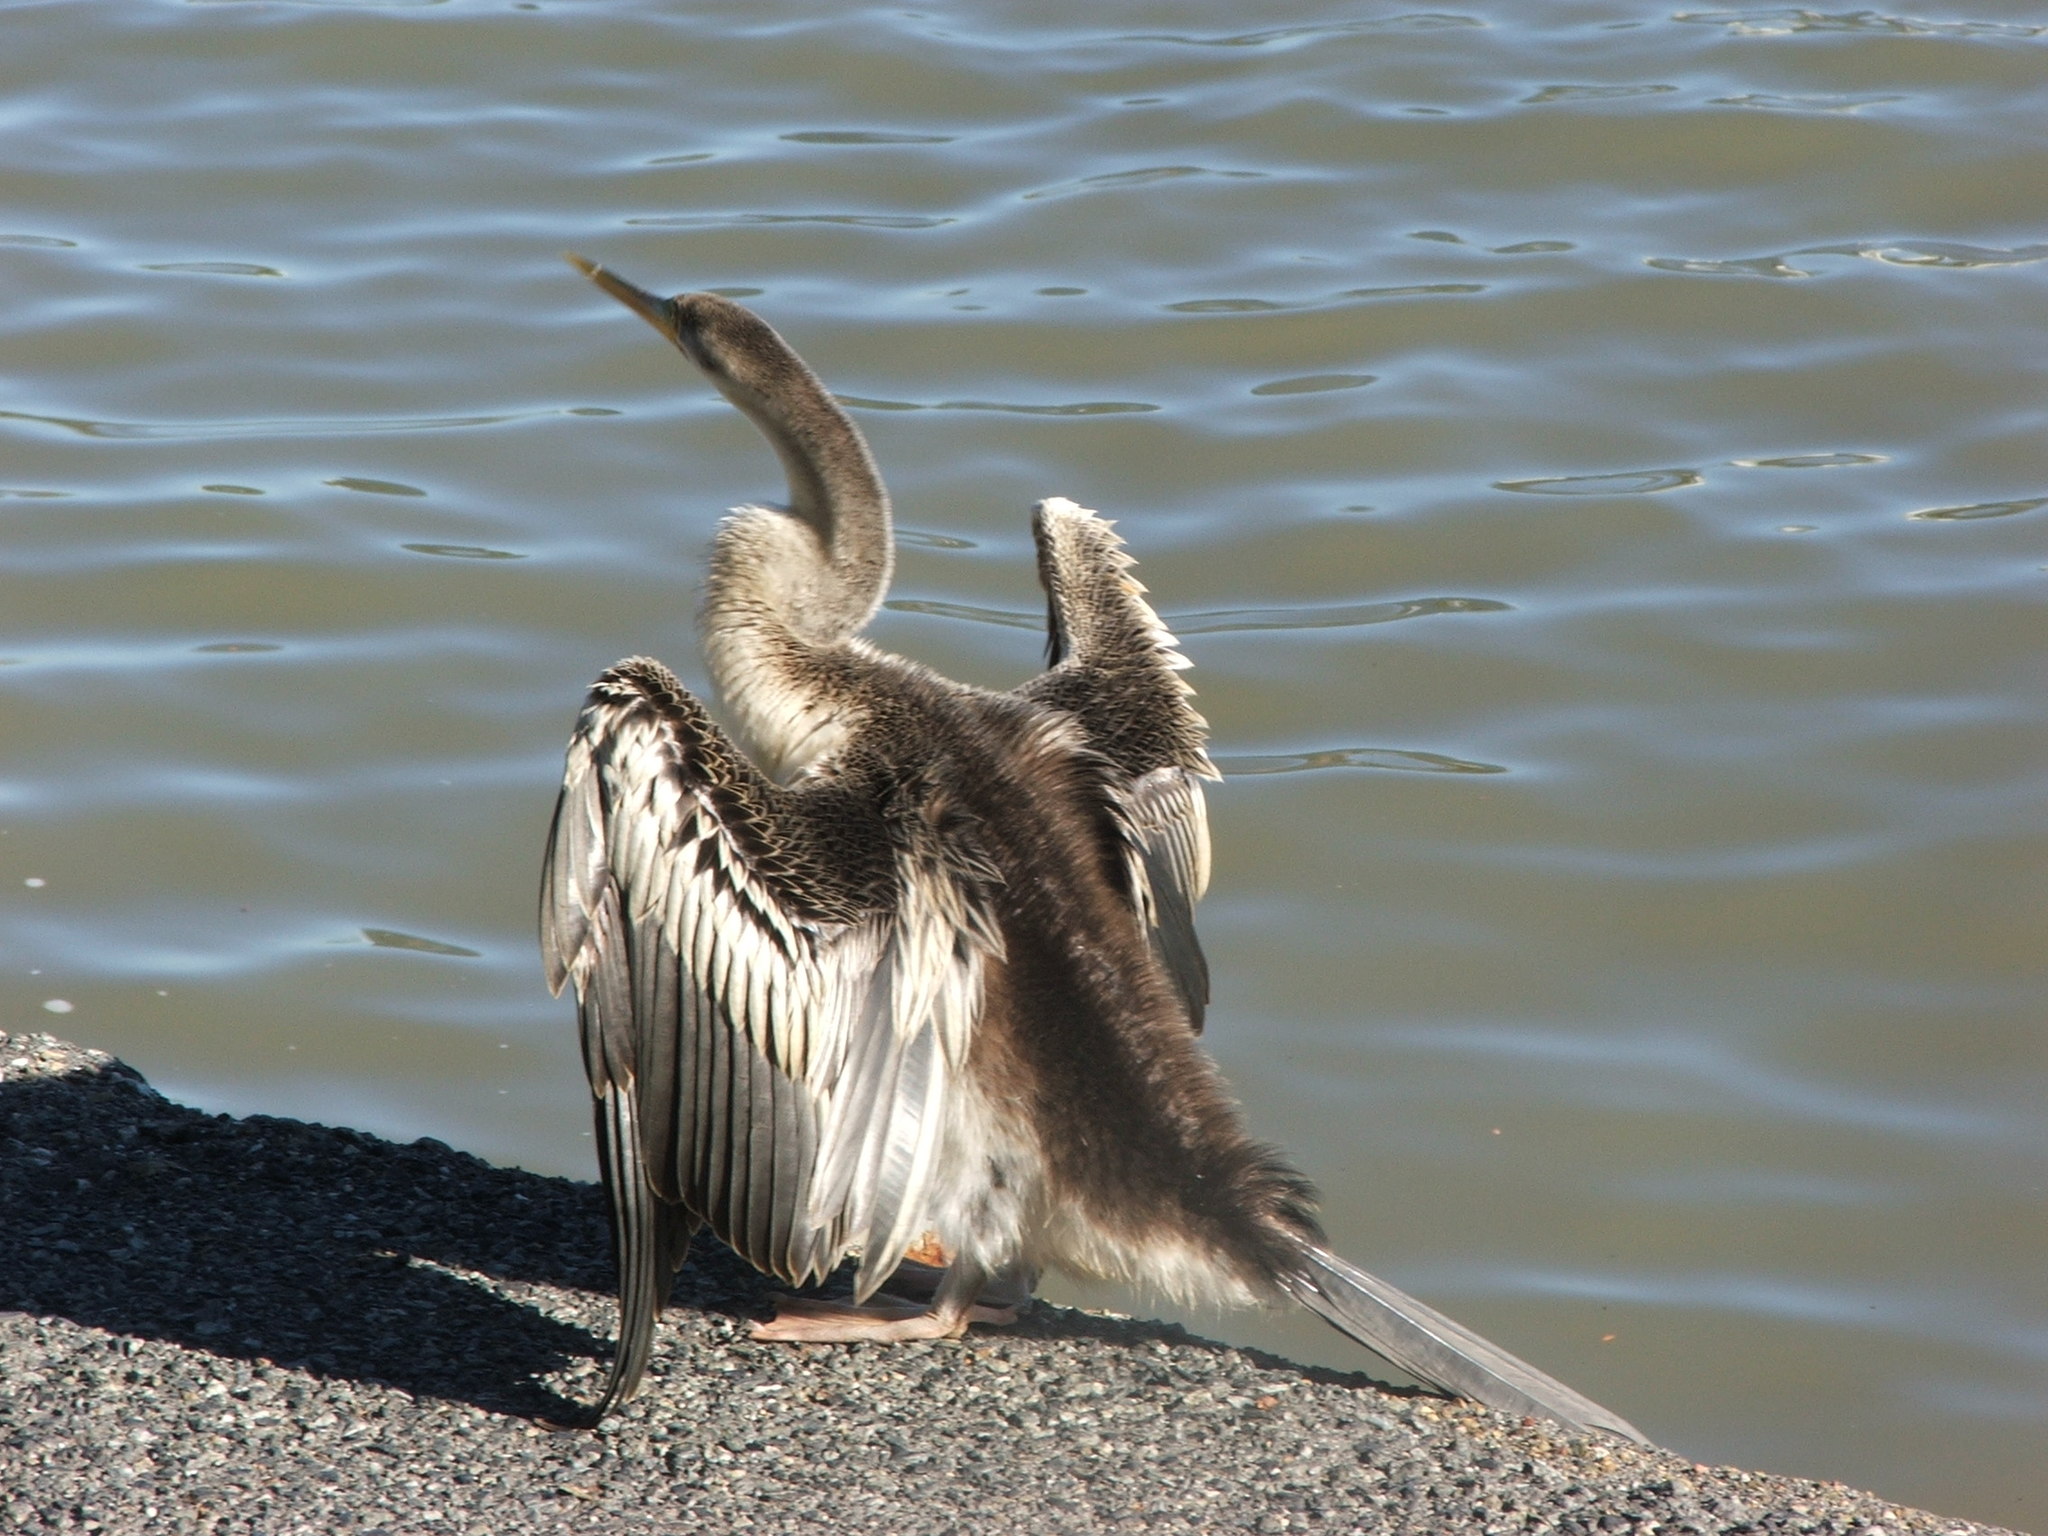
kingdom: Animalia
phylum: Chordata
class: Aves
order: Suliformes
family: Anhingidae
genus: Anhinga
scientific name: Anhinga novaehollandiae
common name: Australasian darter
